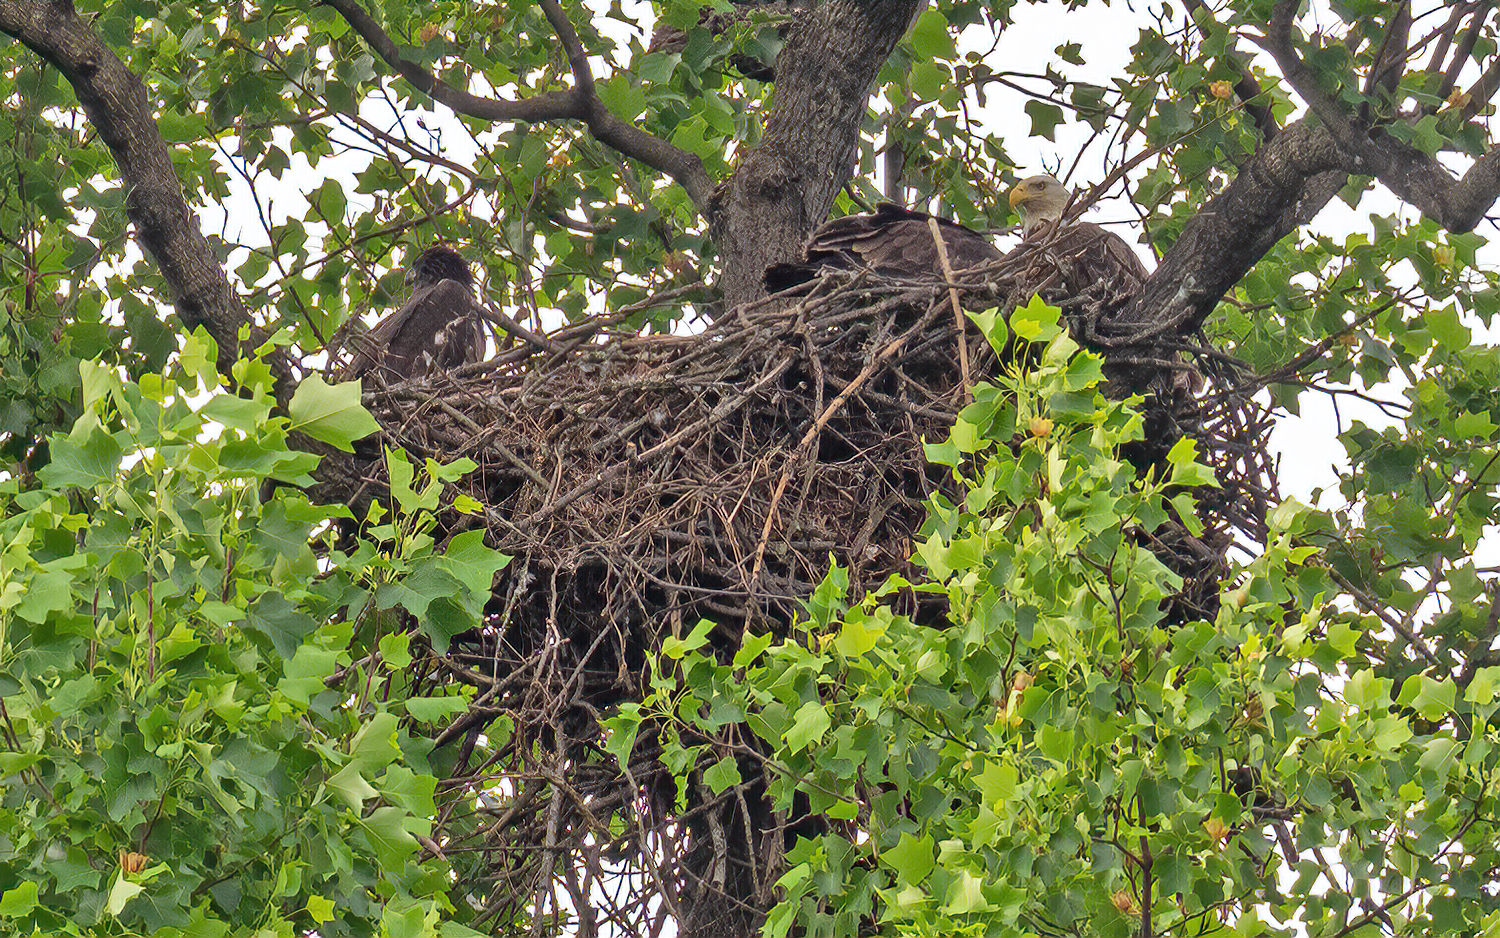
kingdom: Animalia
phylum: Chordata
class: Aves
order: Accipitriformes
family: Accipitridae
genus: Haliaeetus
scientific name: Haliaeetus leucocephalus
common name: Bald eagle
